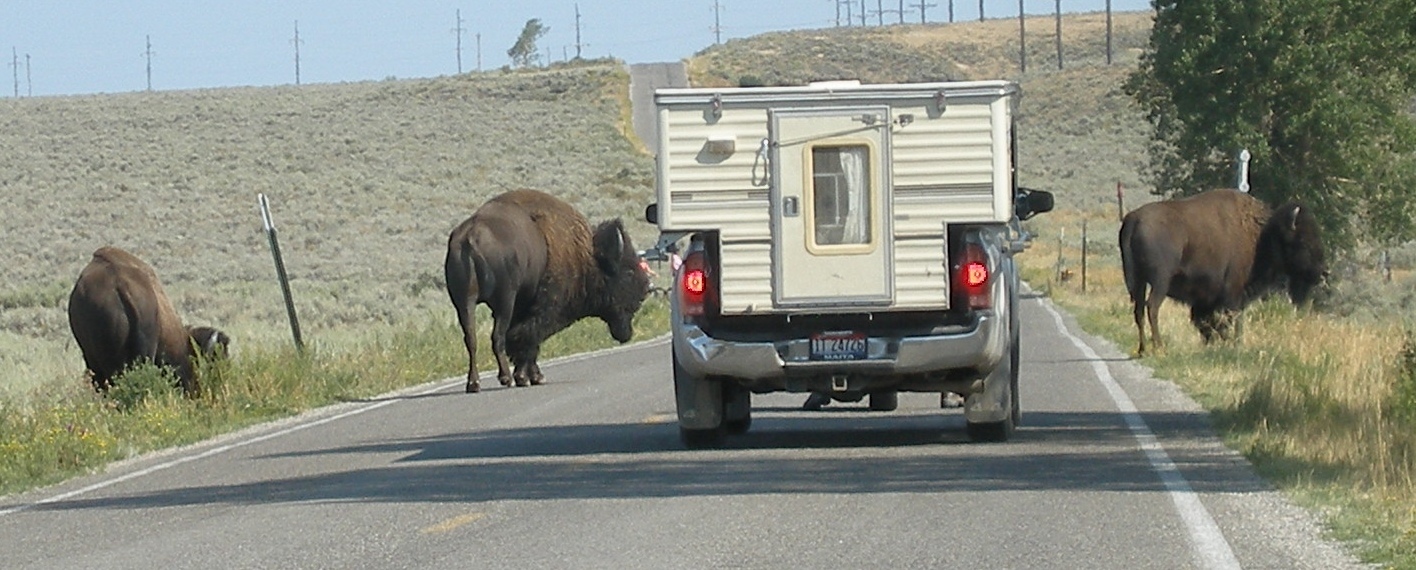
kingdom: Animalia
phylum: Chordata
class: Mammalia
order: Artiodactyla
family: Bovidae
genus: Bison
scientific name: Bison bison
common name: American bison
